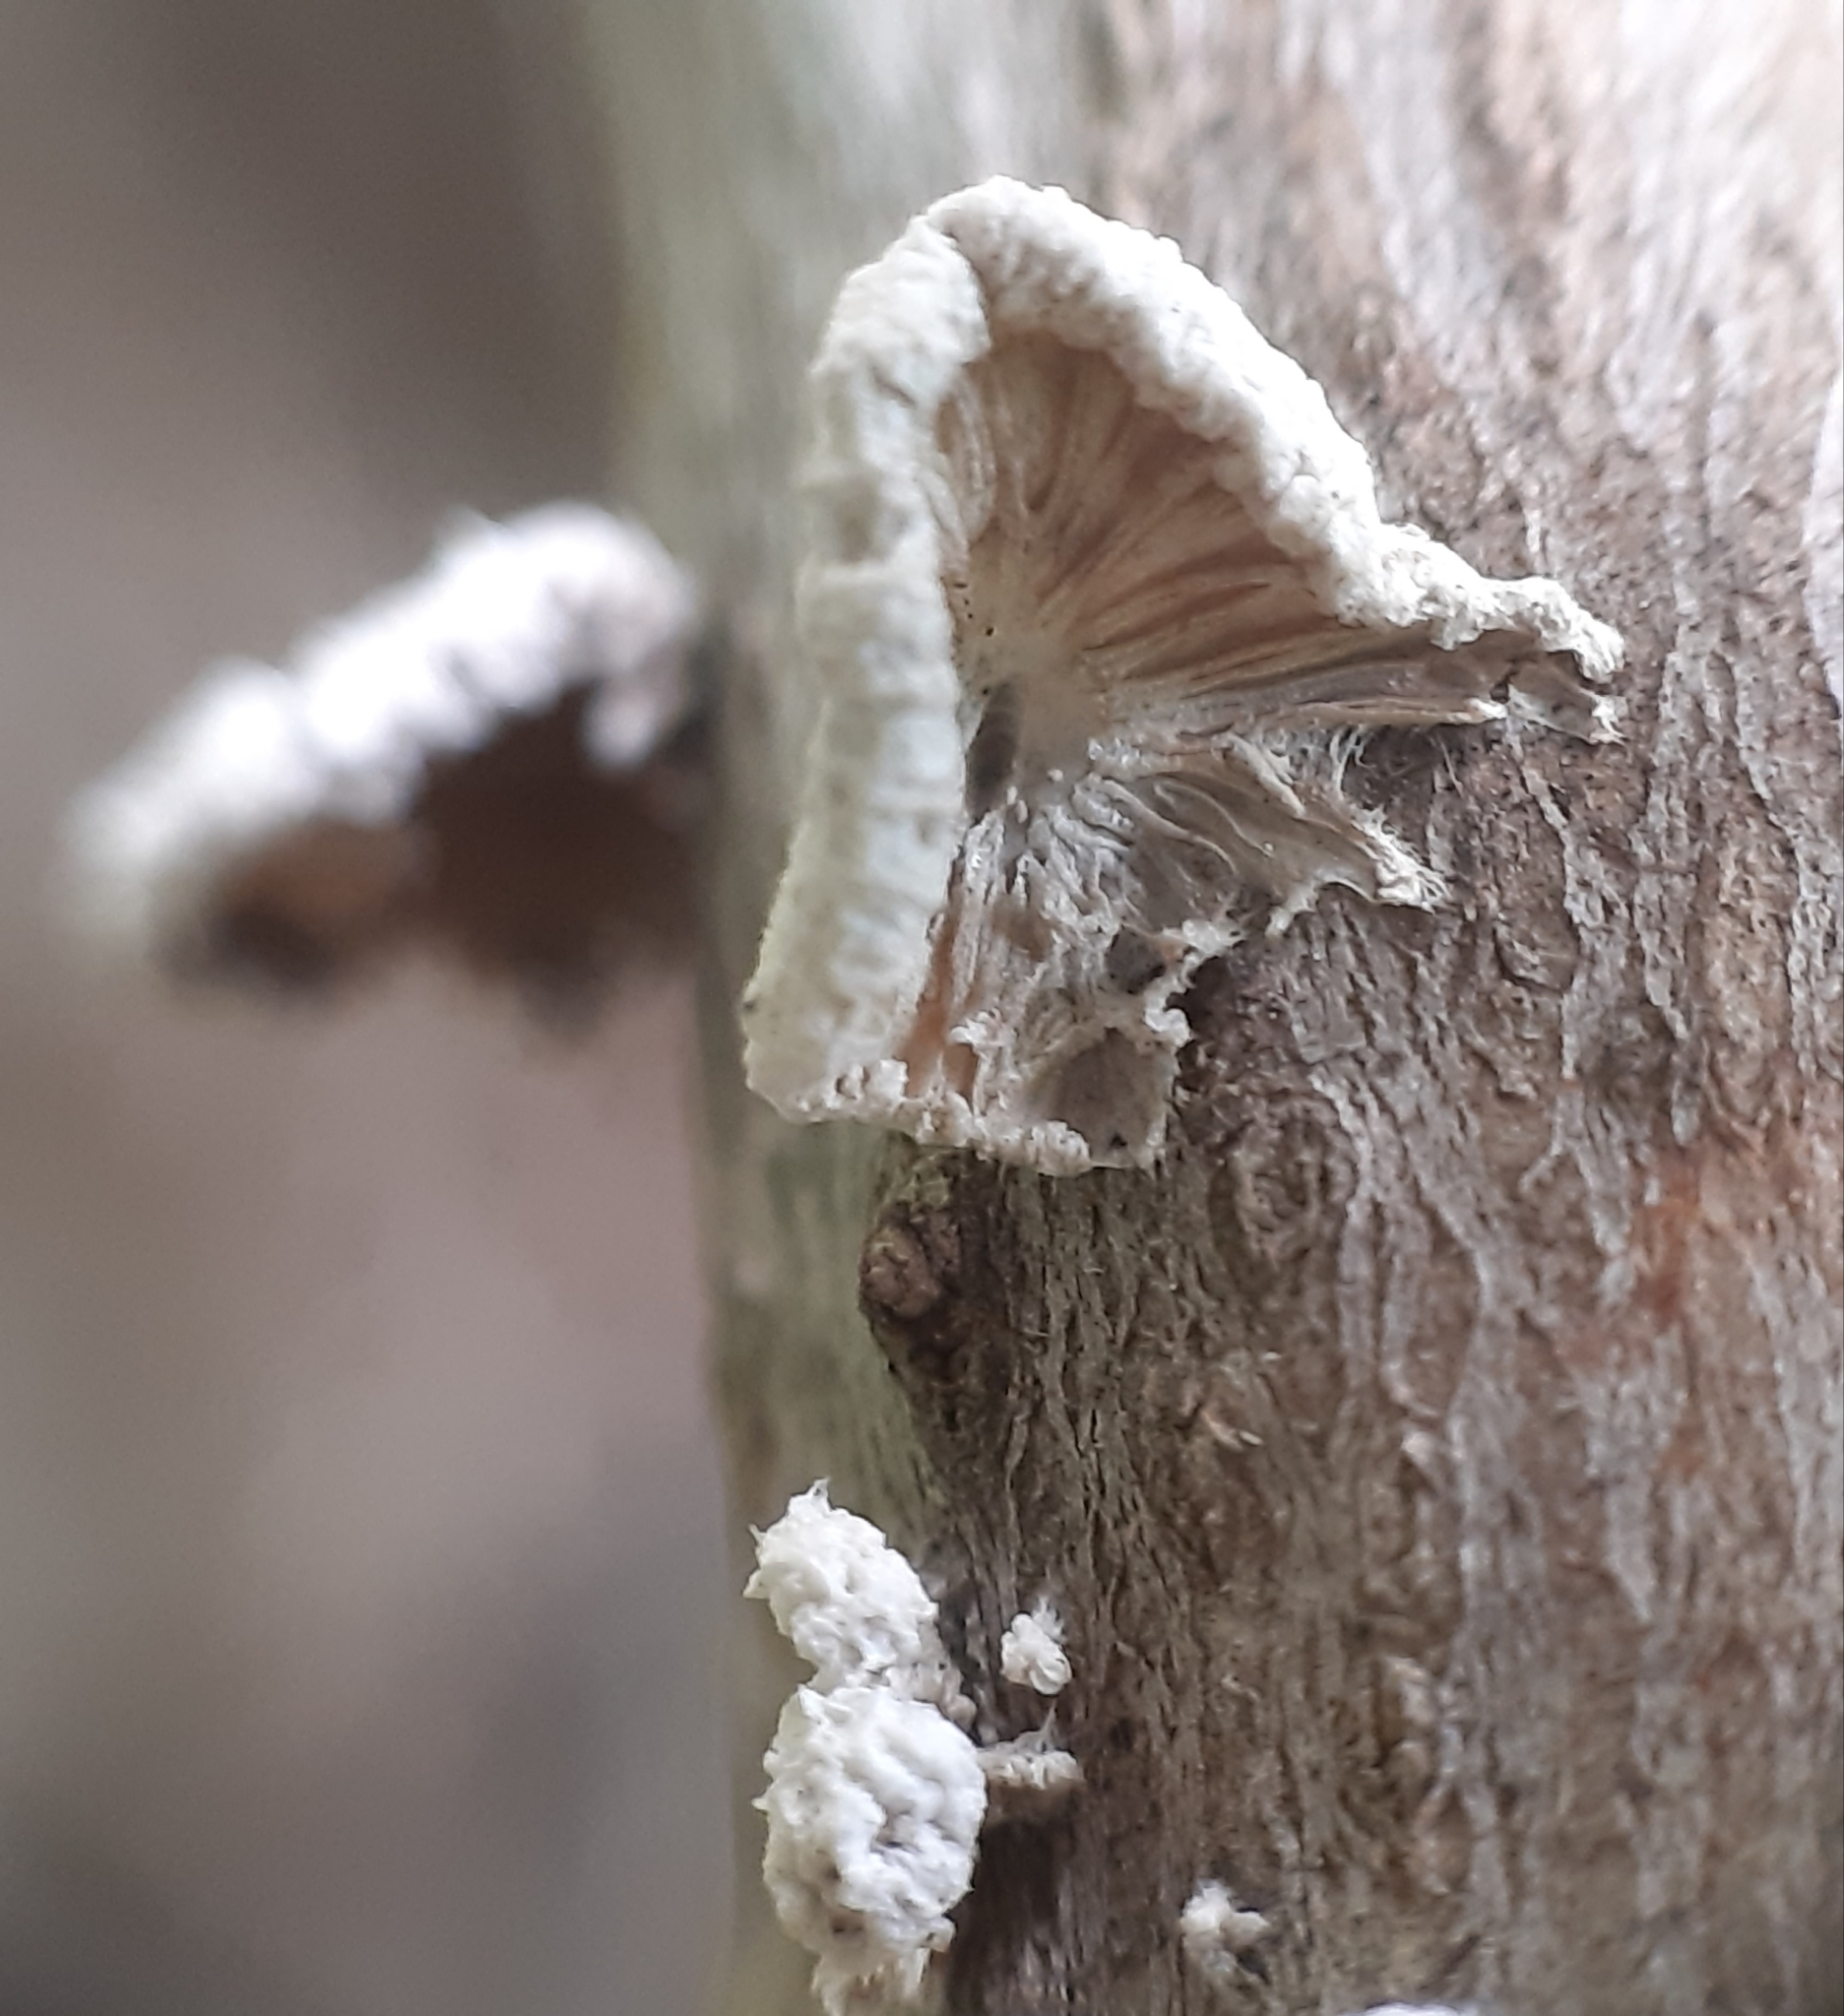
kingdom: Fungi
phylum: Basidiomycota
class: Agaricomycetes
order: Agaricales
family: Schizophyllaceae
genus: Schizophyllum
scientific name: Schizophyllum commune
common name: Common porecrust
